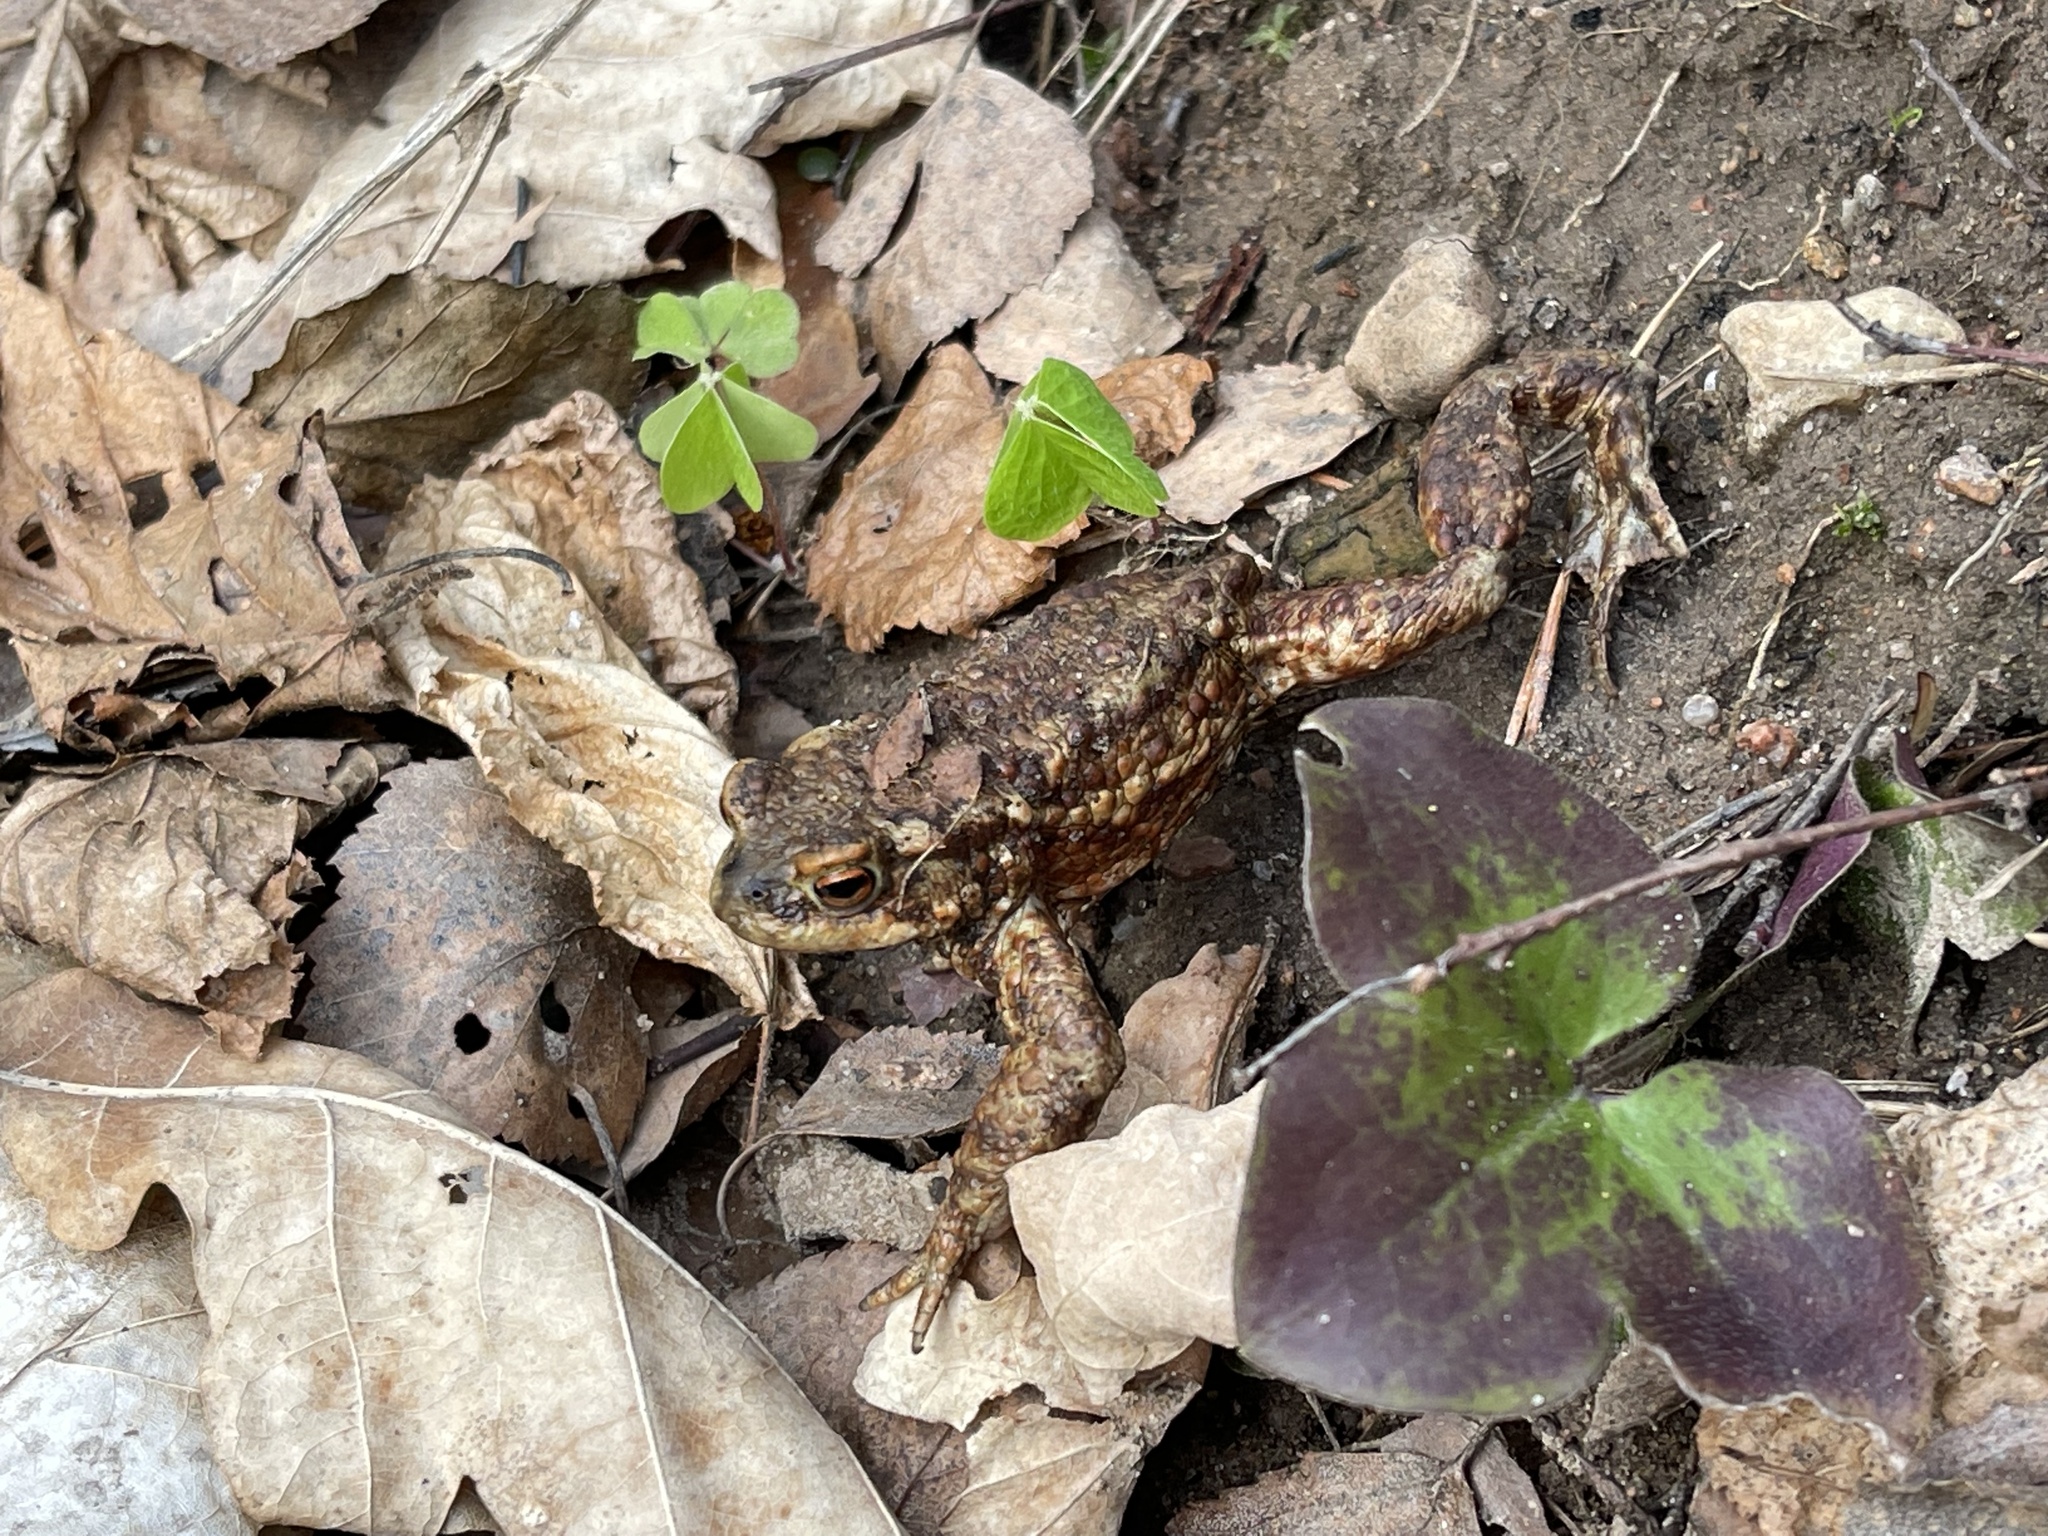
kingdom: Animalia
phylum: Chordata
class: Amphibia
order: Anura
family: Bufonidae
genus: Bufo
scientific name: Bufo bufo
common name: Common toad
